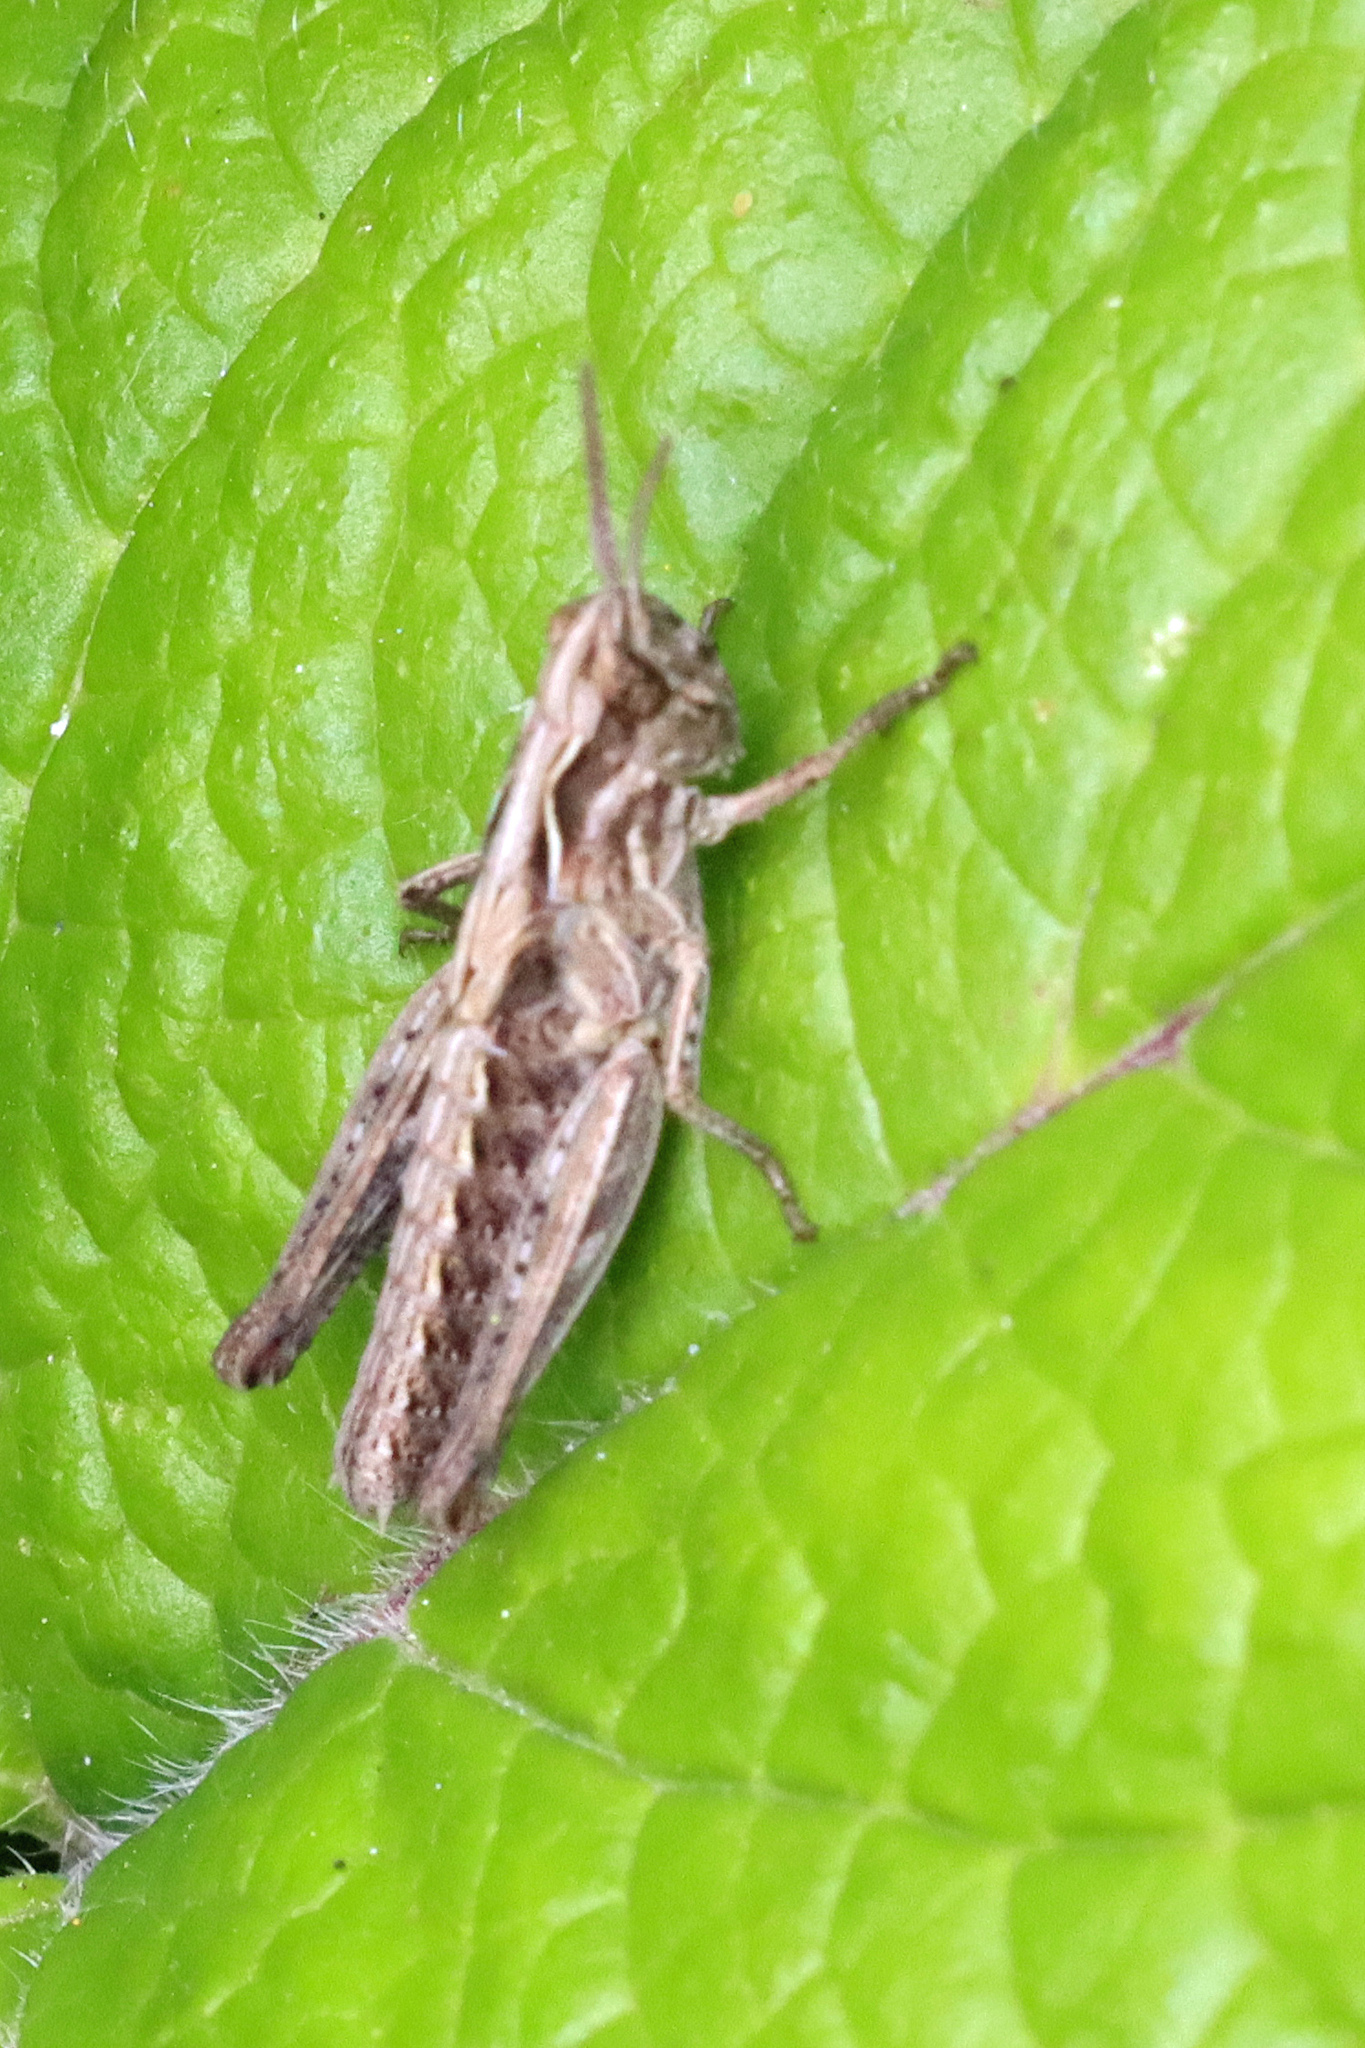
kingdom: Animalia
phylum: Arthropoda
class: Insecta
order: Orthoptera
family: Acrididae
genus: Chorthippus
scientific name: Chorthippus brunneus
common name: Field grasshopper
